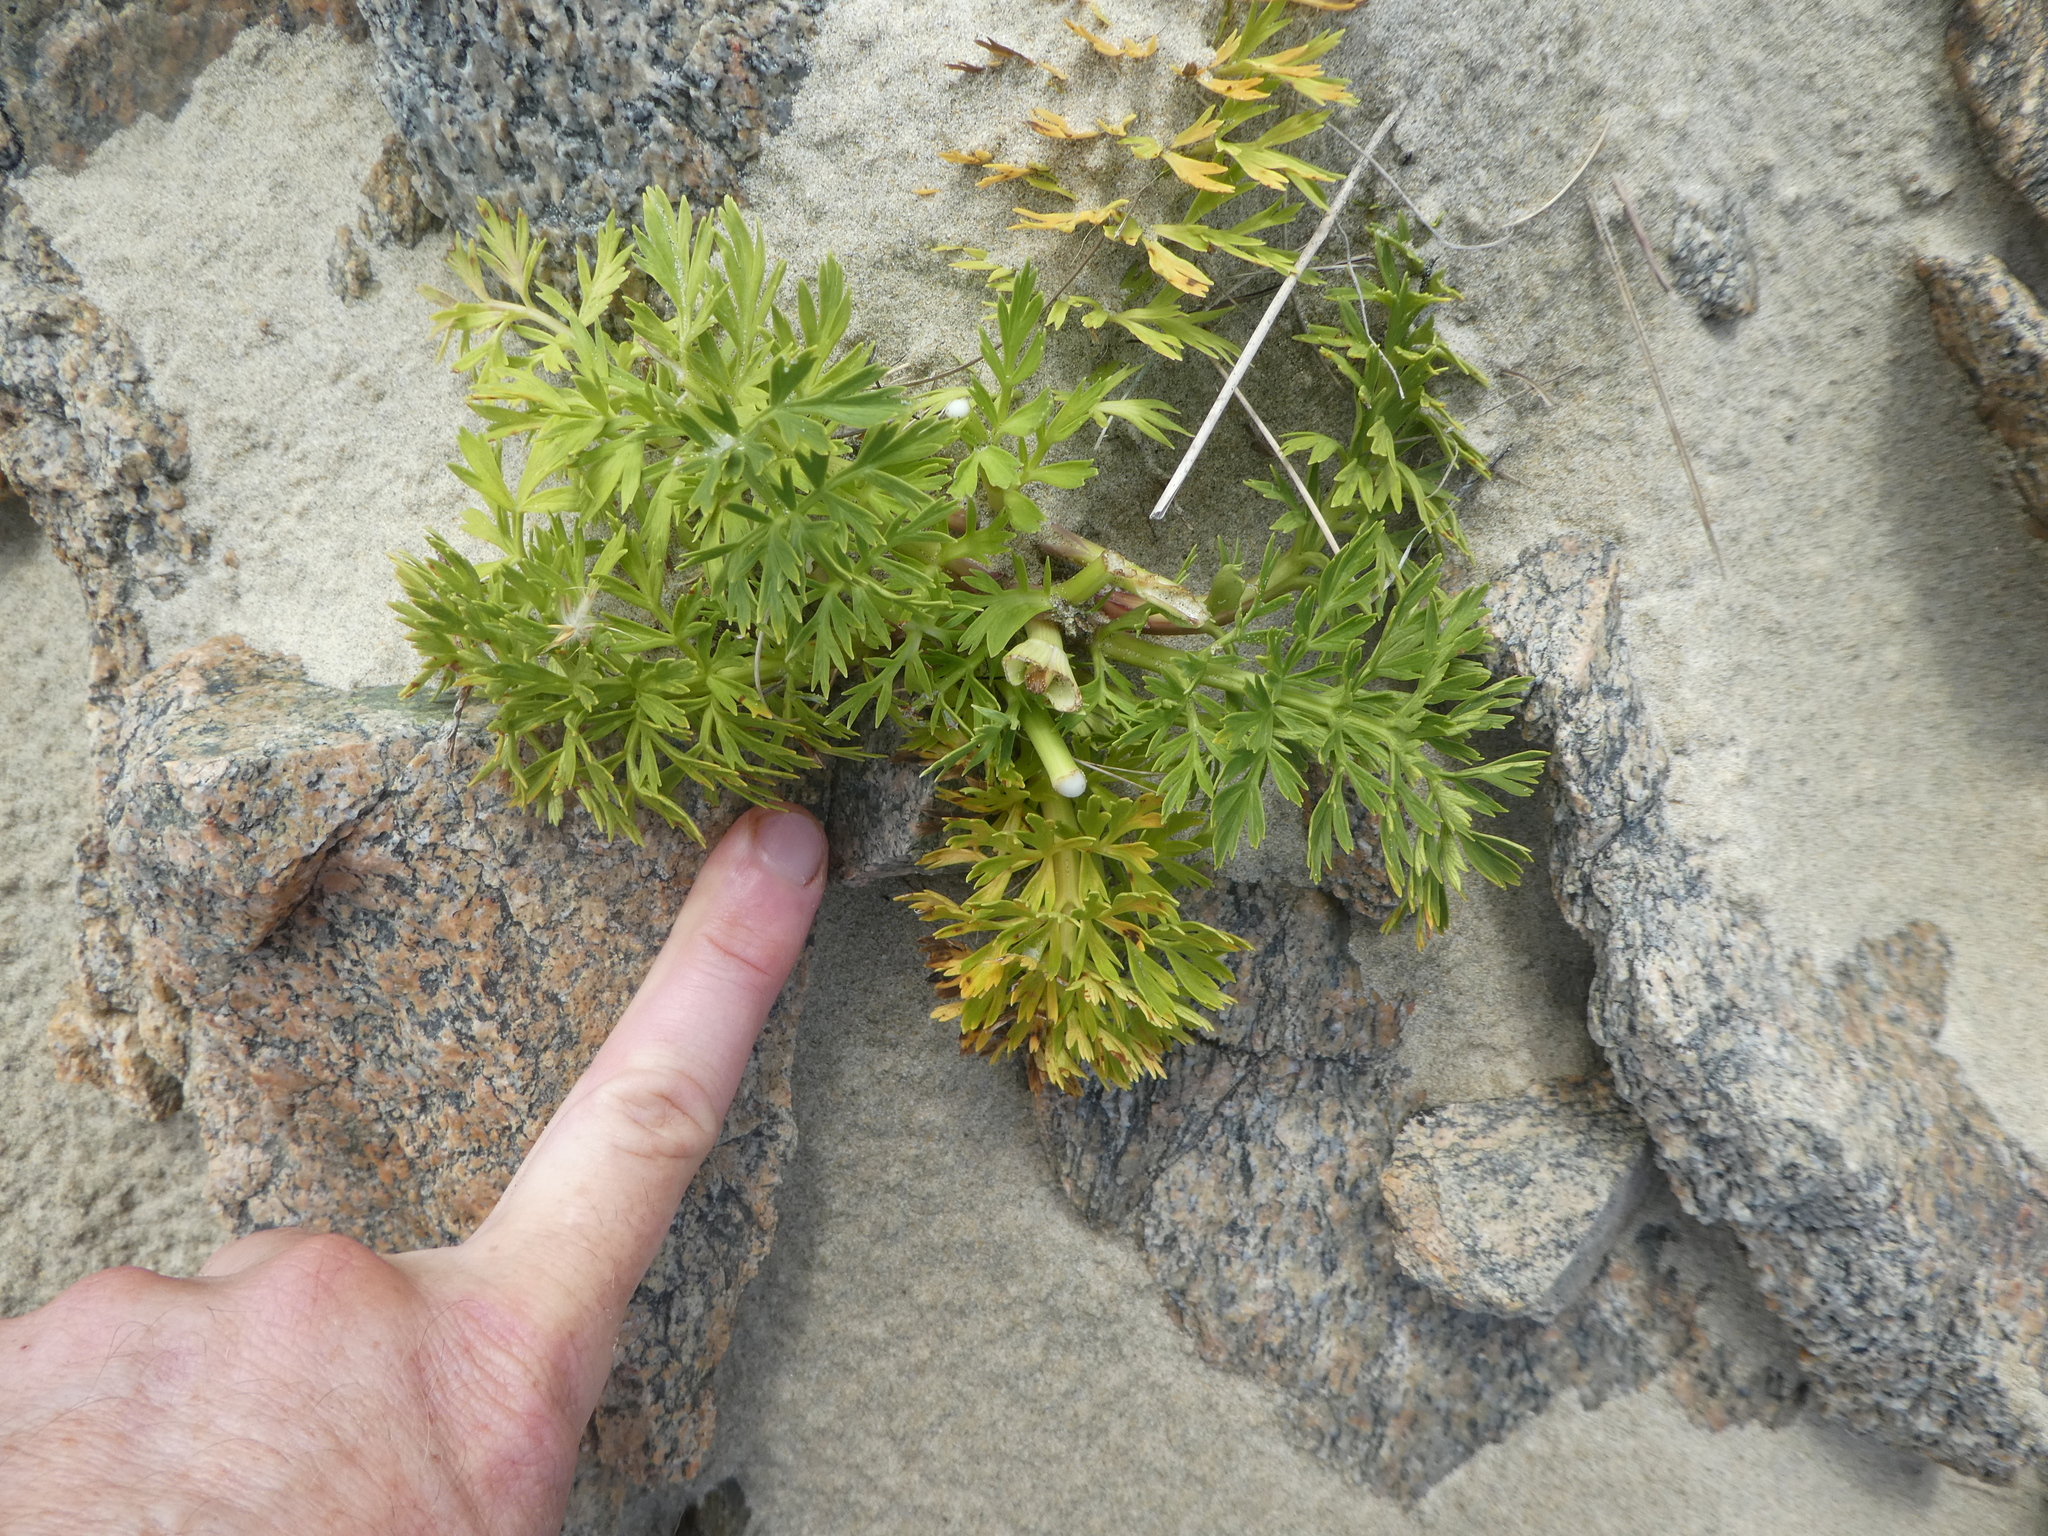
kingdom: Plantae
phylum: Tracheophyta
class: Magnoliopsida
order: Apiales
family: Apiaceae
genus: Anisotome
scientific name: Anisotome lyallii
